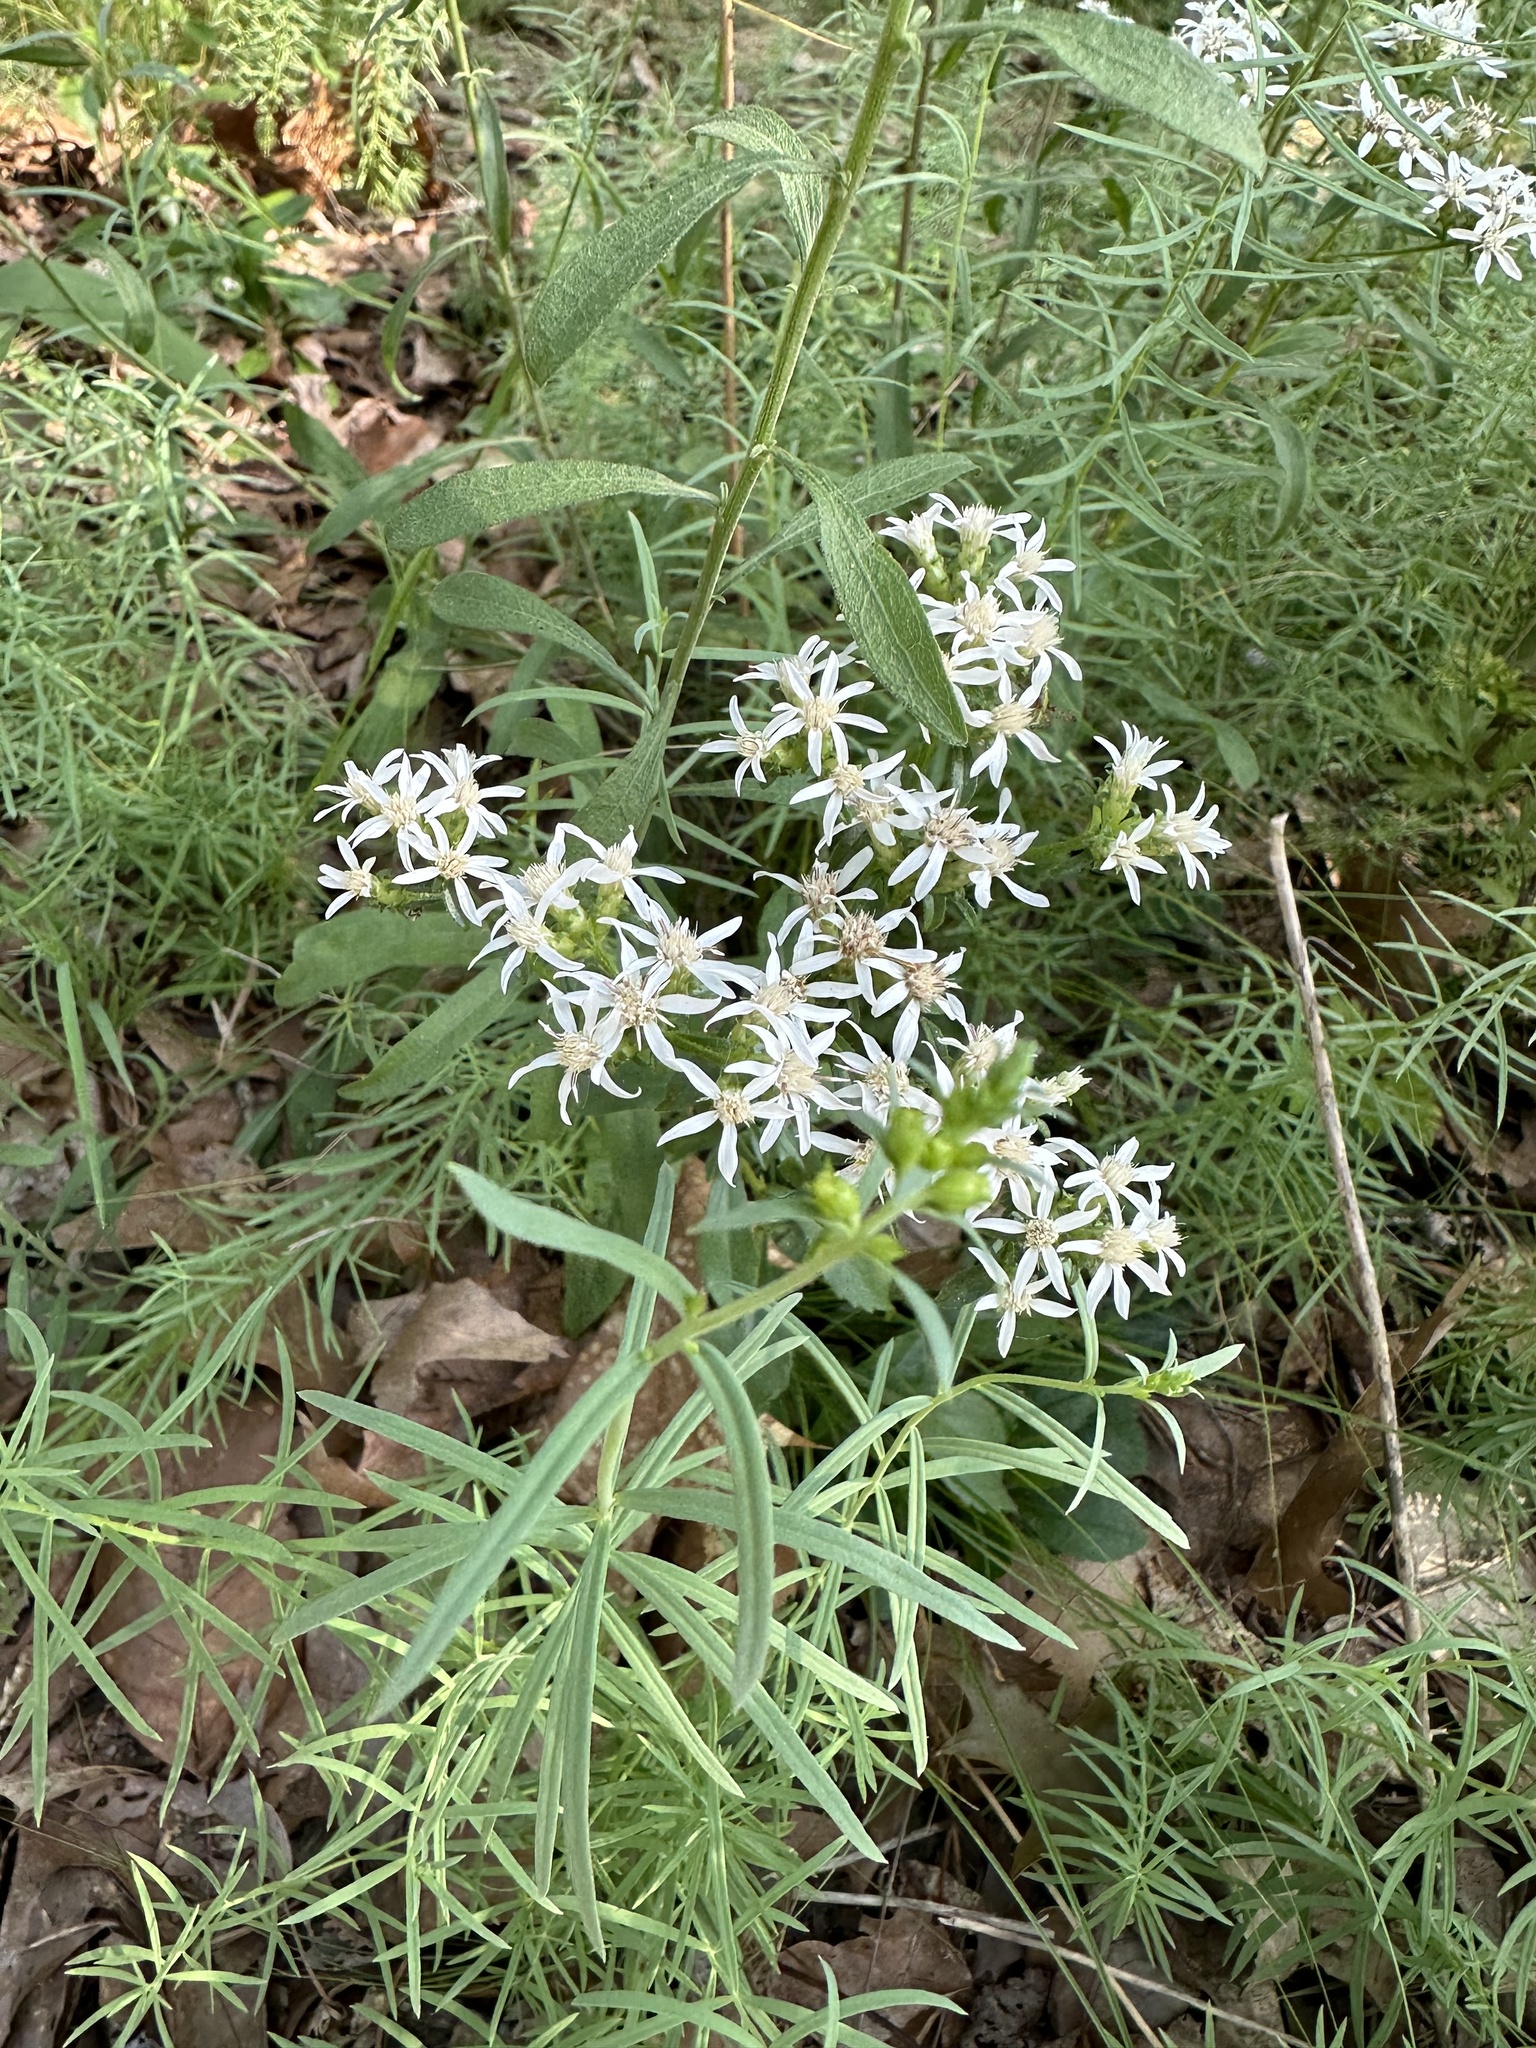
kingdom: Plantae
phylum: Tracheophyta
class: Magnoliopsida
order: Asterales
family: Asteraceae
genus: Sericocarpus
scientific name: Sericocarpus linifolius
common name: Narrow-leaf aster
